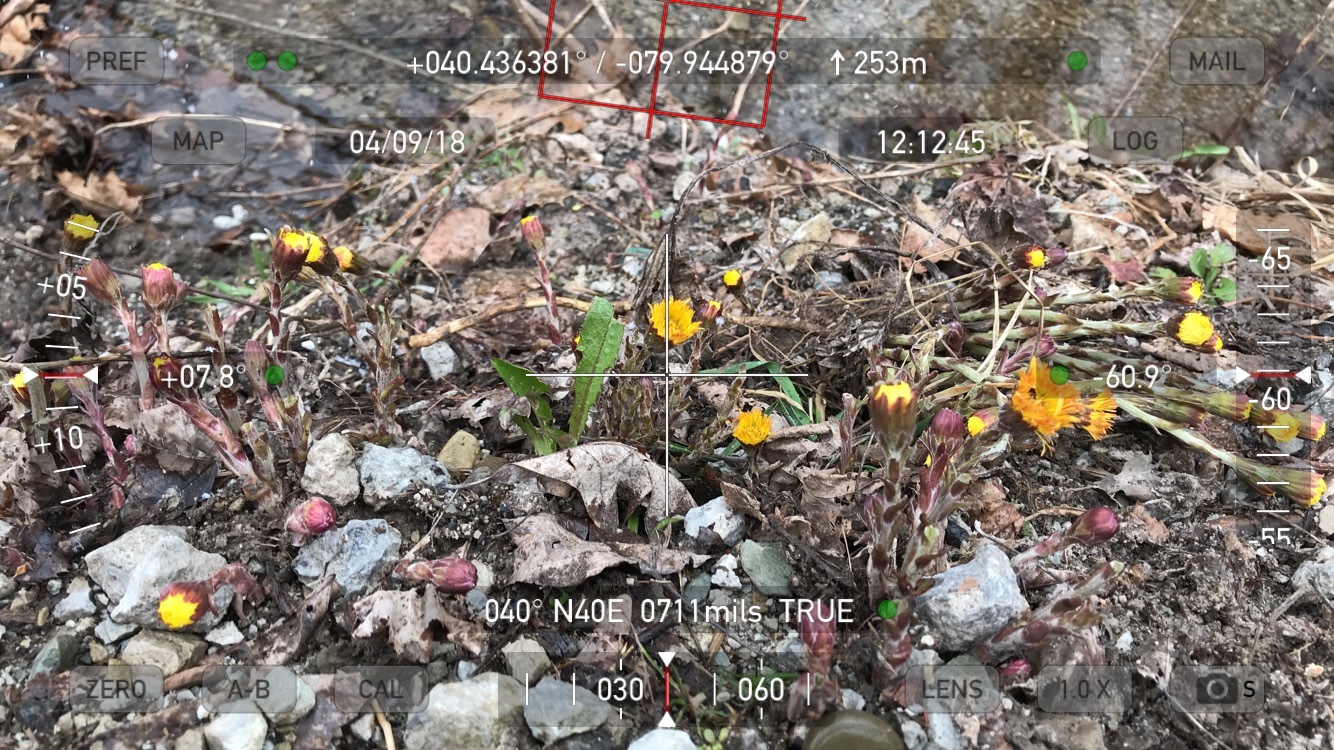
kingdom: Plantae
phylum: Tracheophyta
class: Magnoliopsida
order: Asterales
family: Asteraceae
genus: Tussilago
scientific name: Tussilago farfara
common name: Coltsfoot
